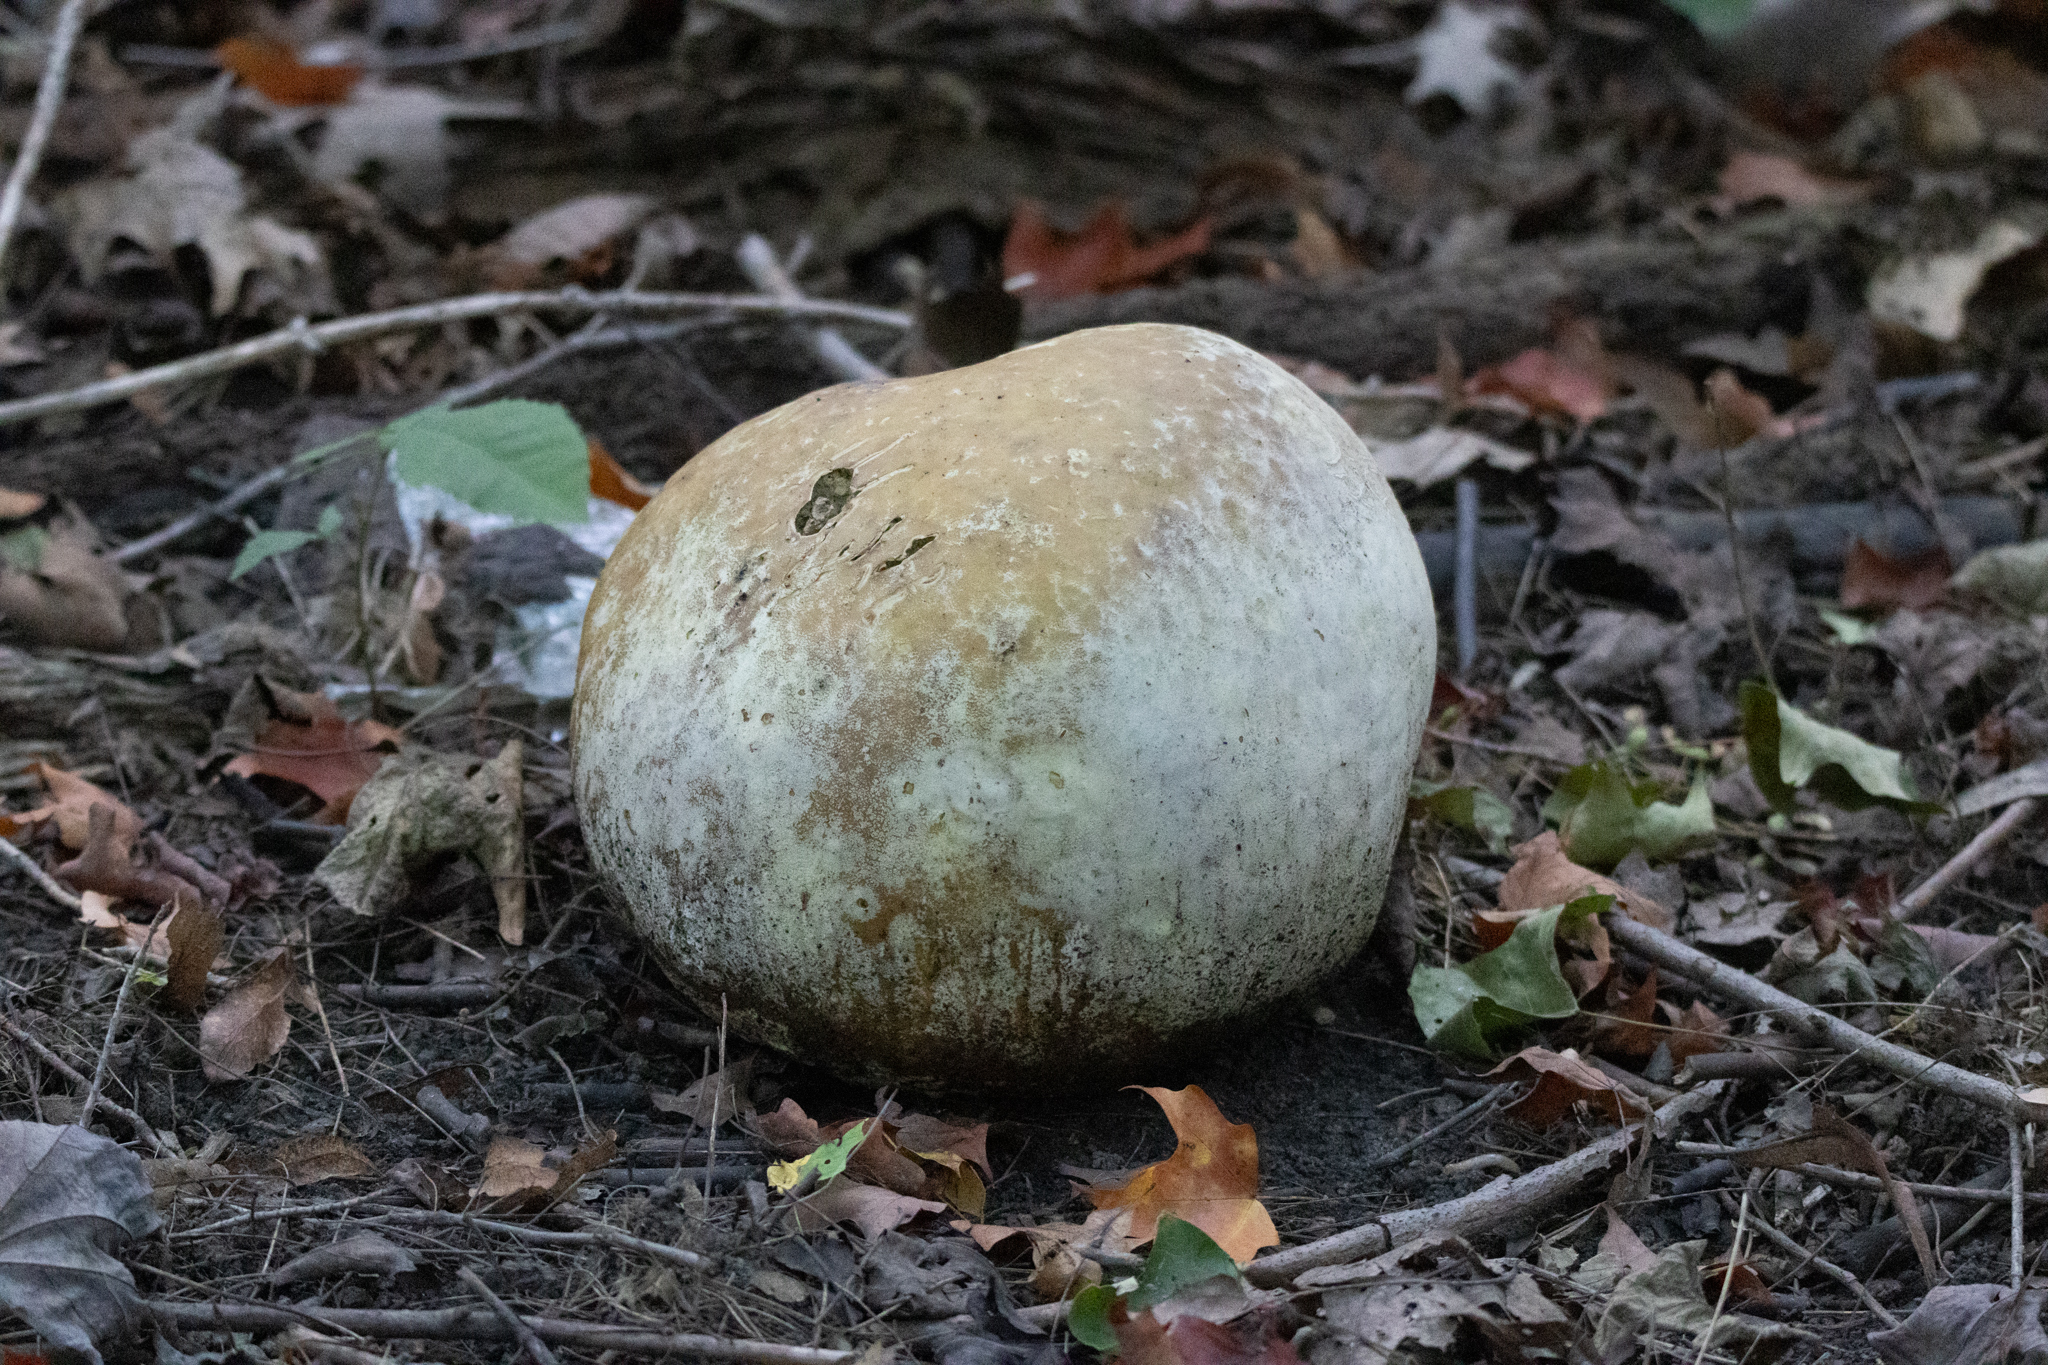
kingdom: Fungi
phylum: Basidiomycota
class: Agaricomycetes
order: Agaricales
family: Lycoperdaceae
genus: Calvatia
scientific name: Calvatia gigantea
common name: Giant puffball
